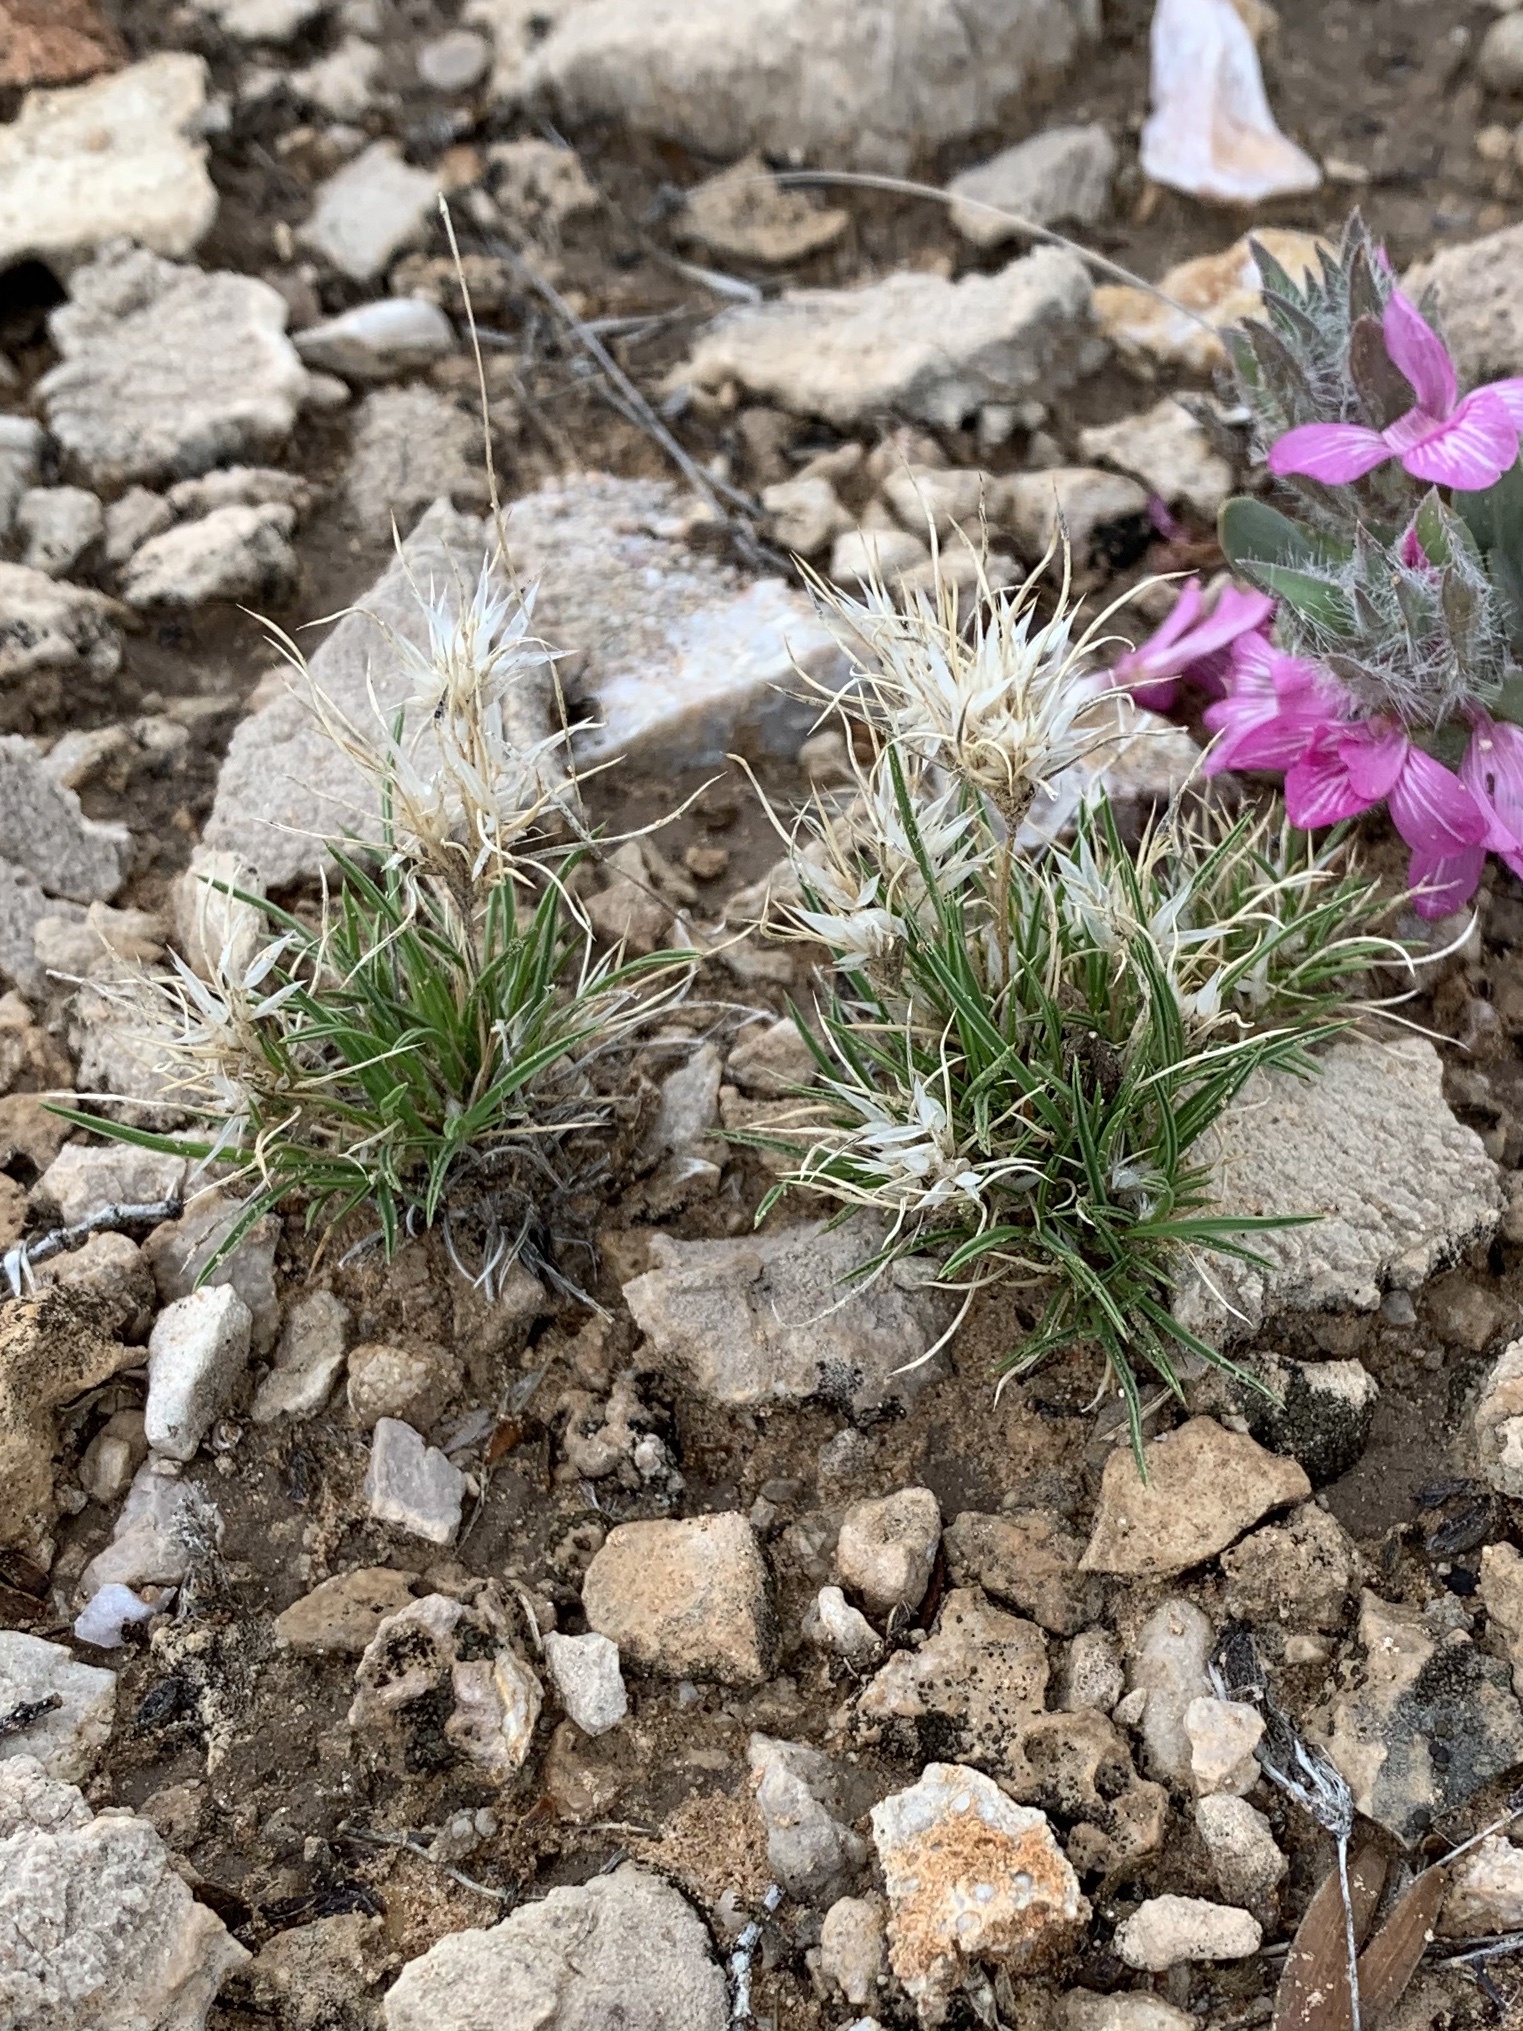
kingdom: Plantae
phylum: Tracheophyta
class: Liliopsida
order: Poales
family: Poaceae
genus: Dasyochloa
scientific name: Dasyochloa pulchella
